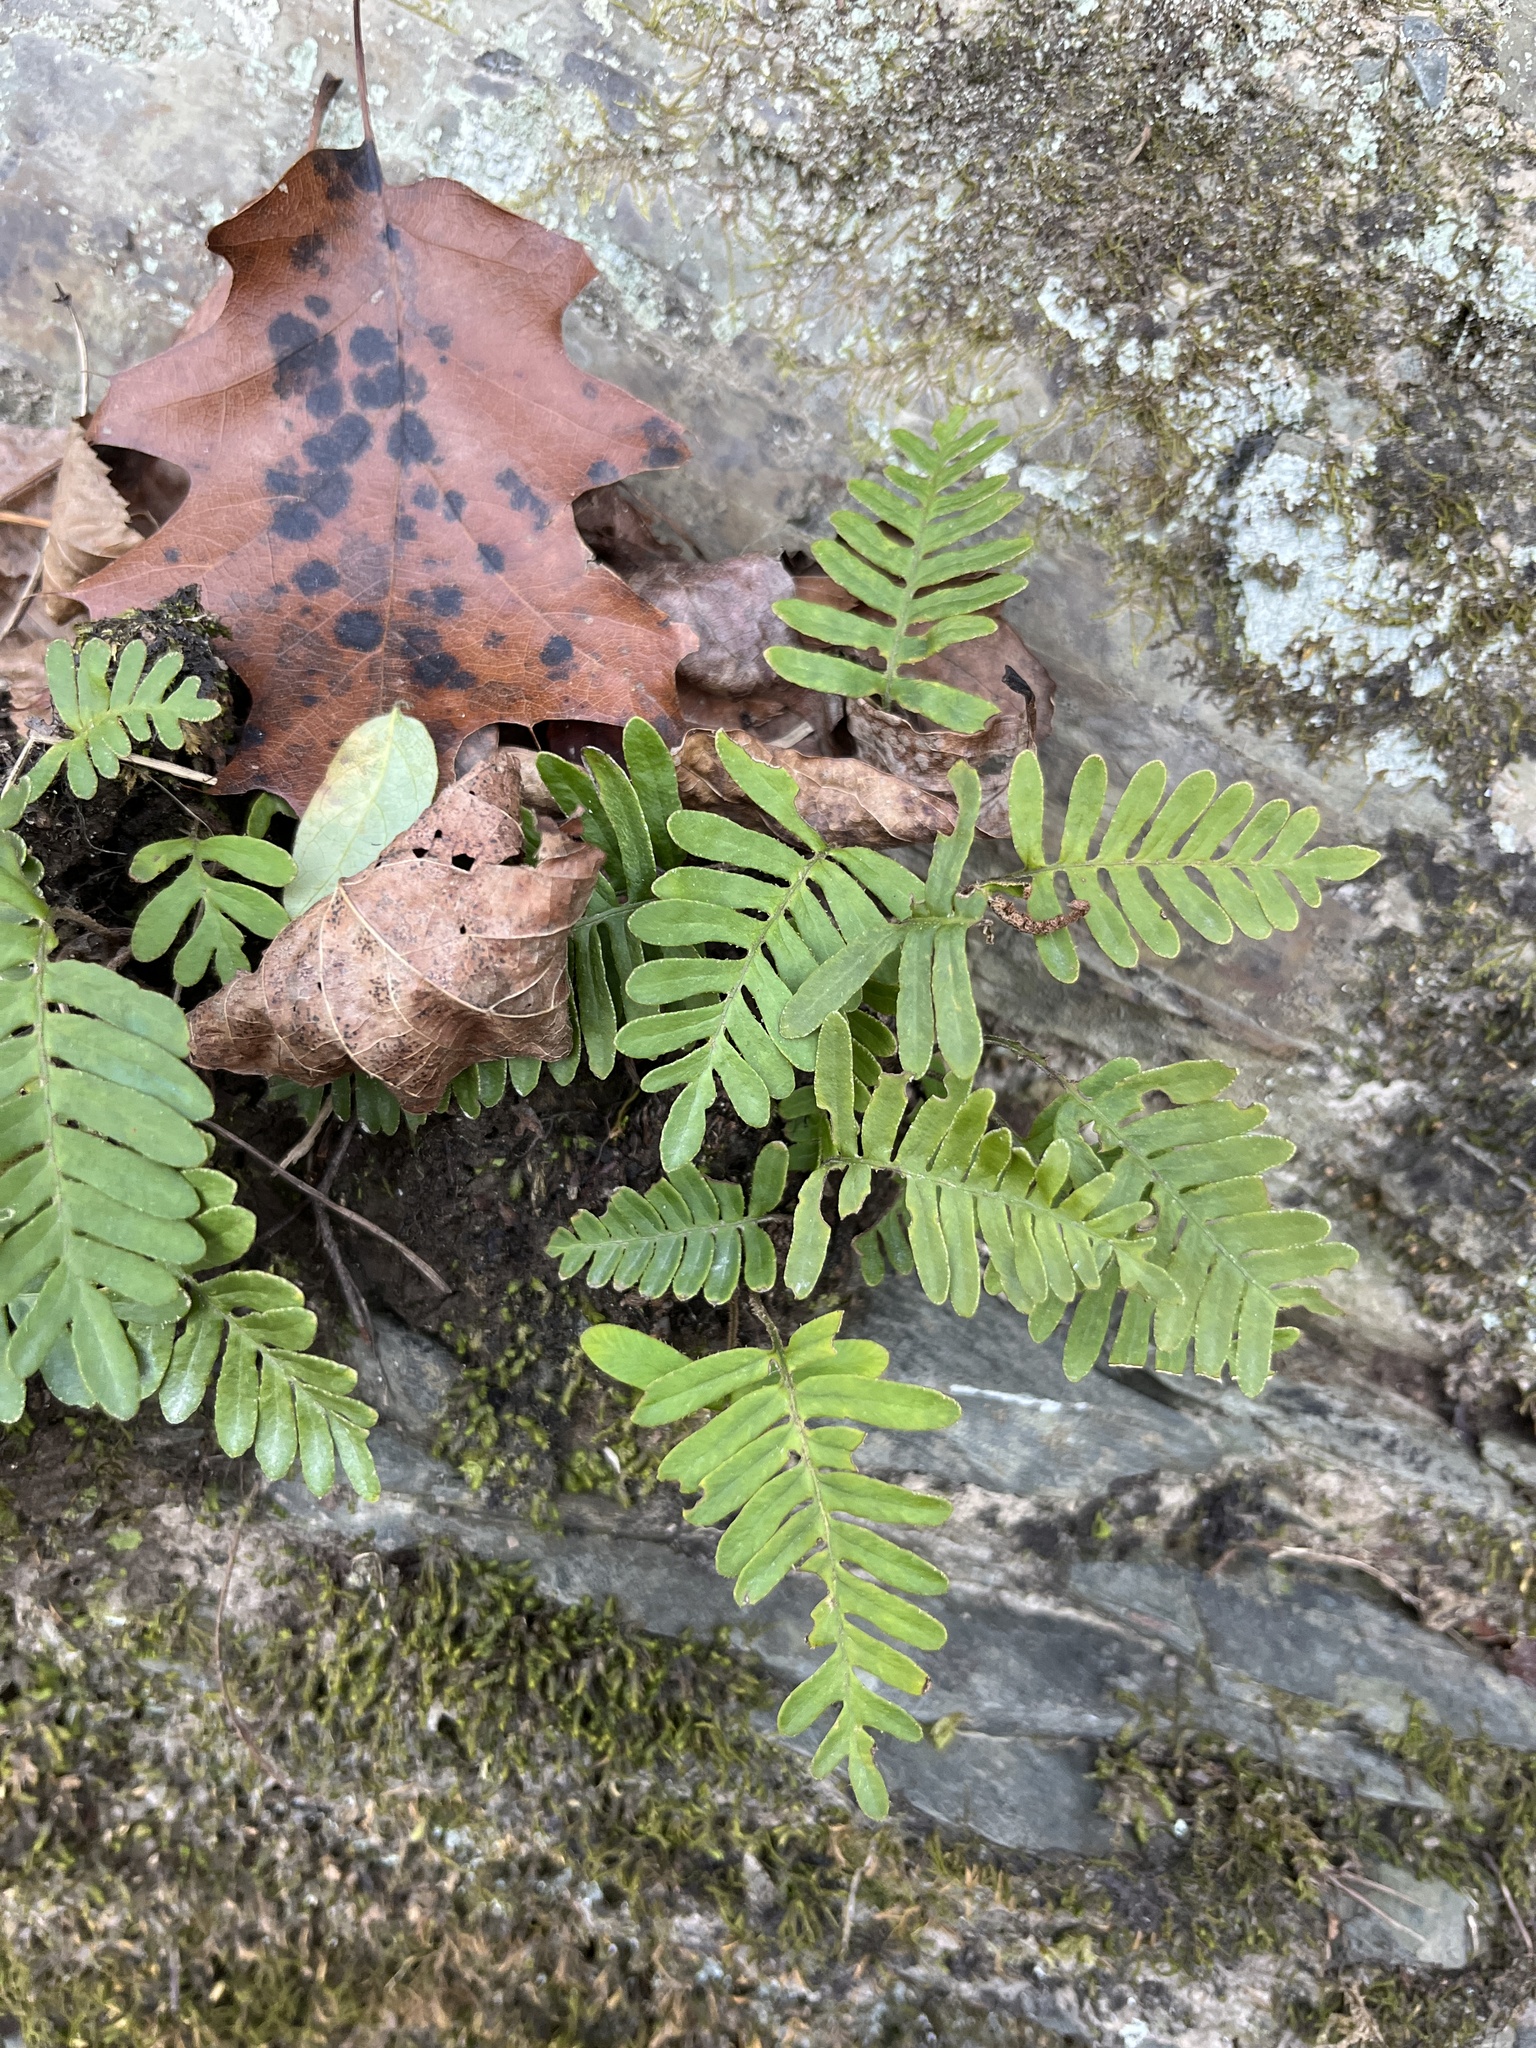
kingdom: Plantae
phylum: Tracheophyta
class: Polypodiopsida
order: Polypodiales
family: Polypodiaceae
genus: Pleopeltis
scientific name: Pleopeltis michauxiana
